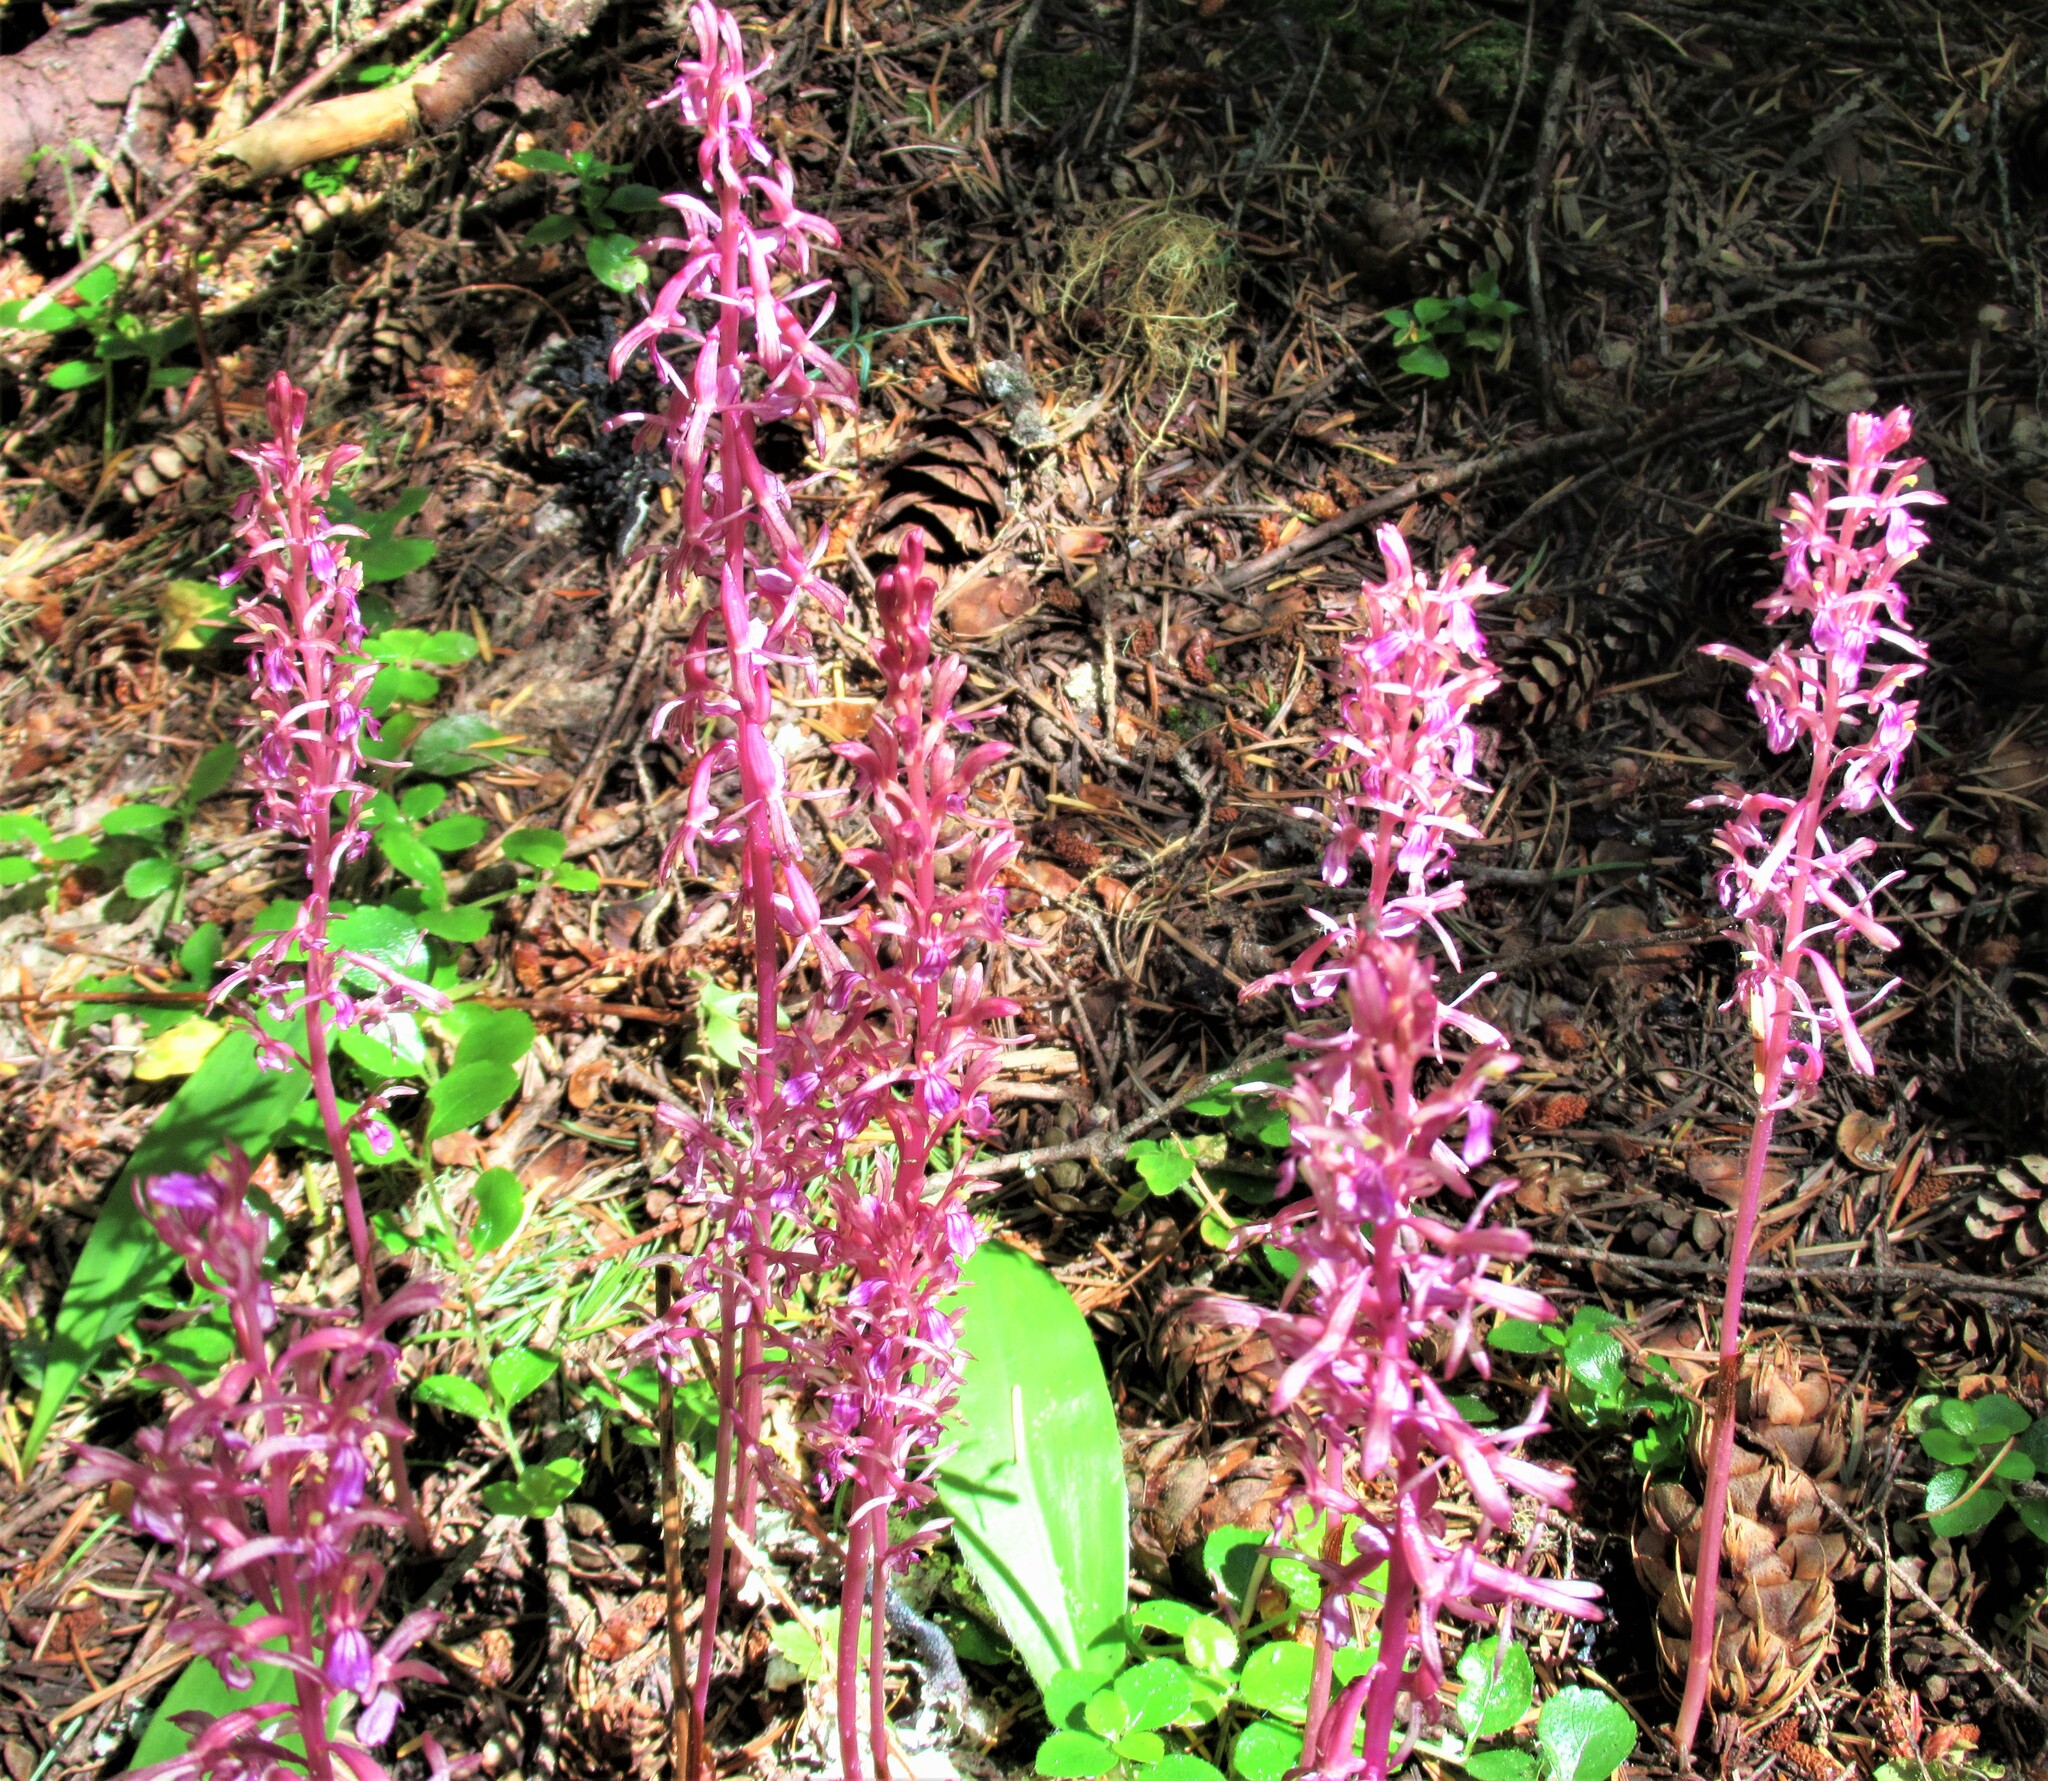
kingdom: Plantae
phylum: Tracheophyta
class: Liliopsida
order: Asparagales
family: Orchidaceae
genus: Corallorhiza
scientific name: Corallorhiza mertensiana
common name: Pacific coralroot
